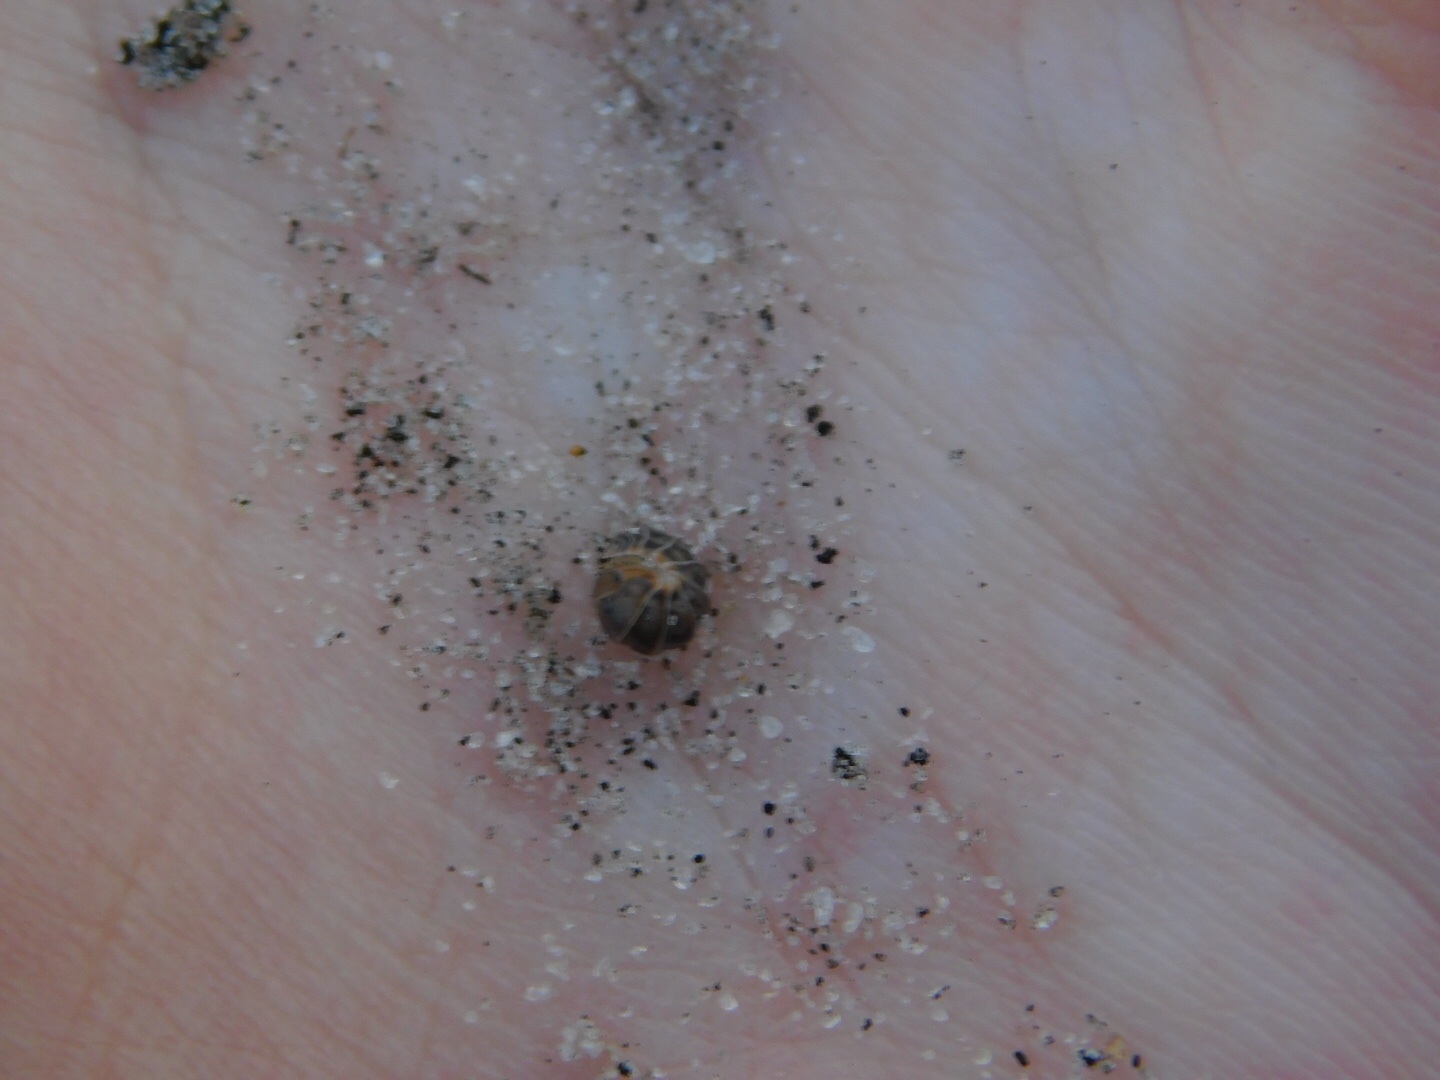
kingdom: Animalia
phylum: Arthropoda
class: Malacostraca
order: Isopoda
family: Armadillidae
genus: Venezillo
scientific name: Venezillo parvus
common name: Pillbug
